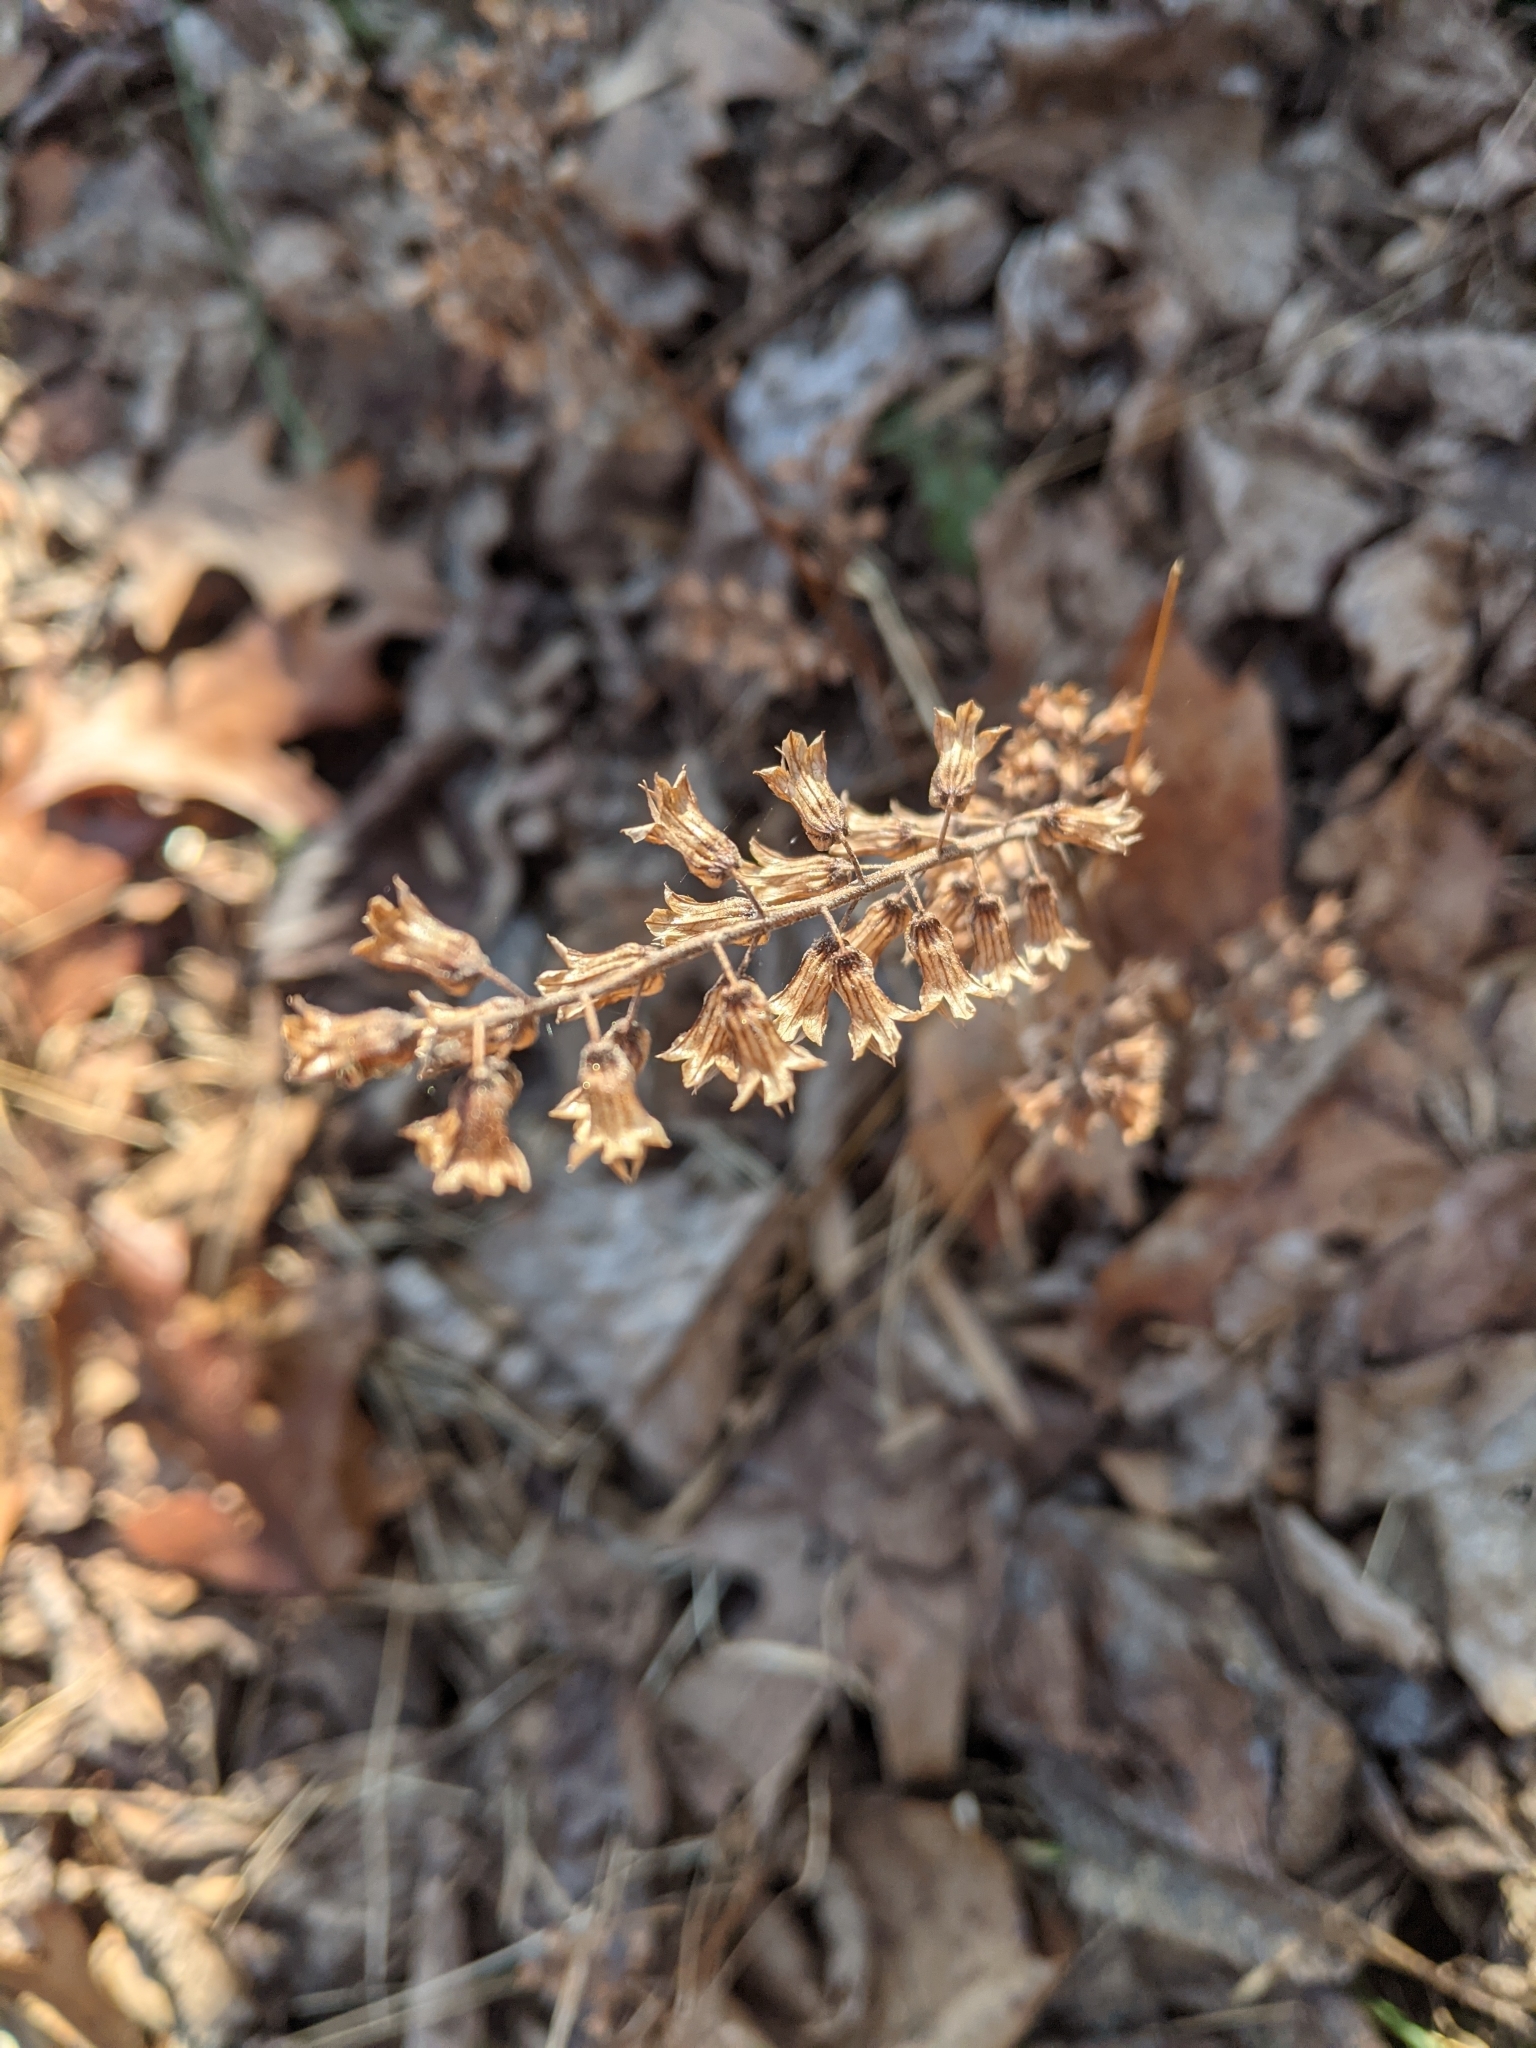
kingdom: Plantae
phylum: Tracheophyta
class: Magnoliopsida
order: Lamiales
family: Lamiaceae
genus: Perilla
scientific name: Perilla frutescens
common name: Perilla
